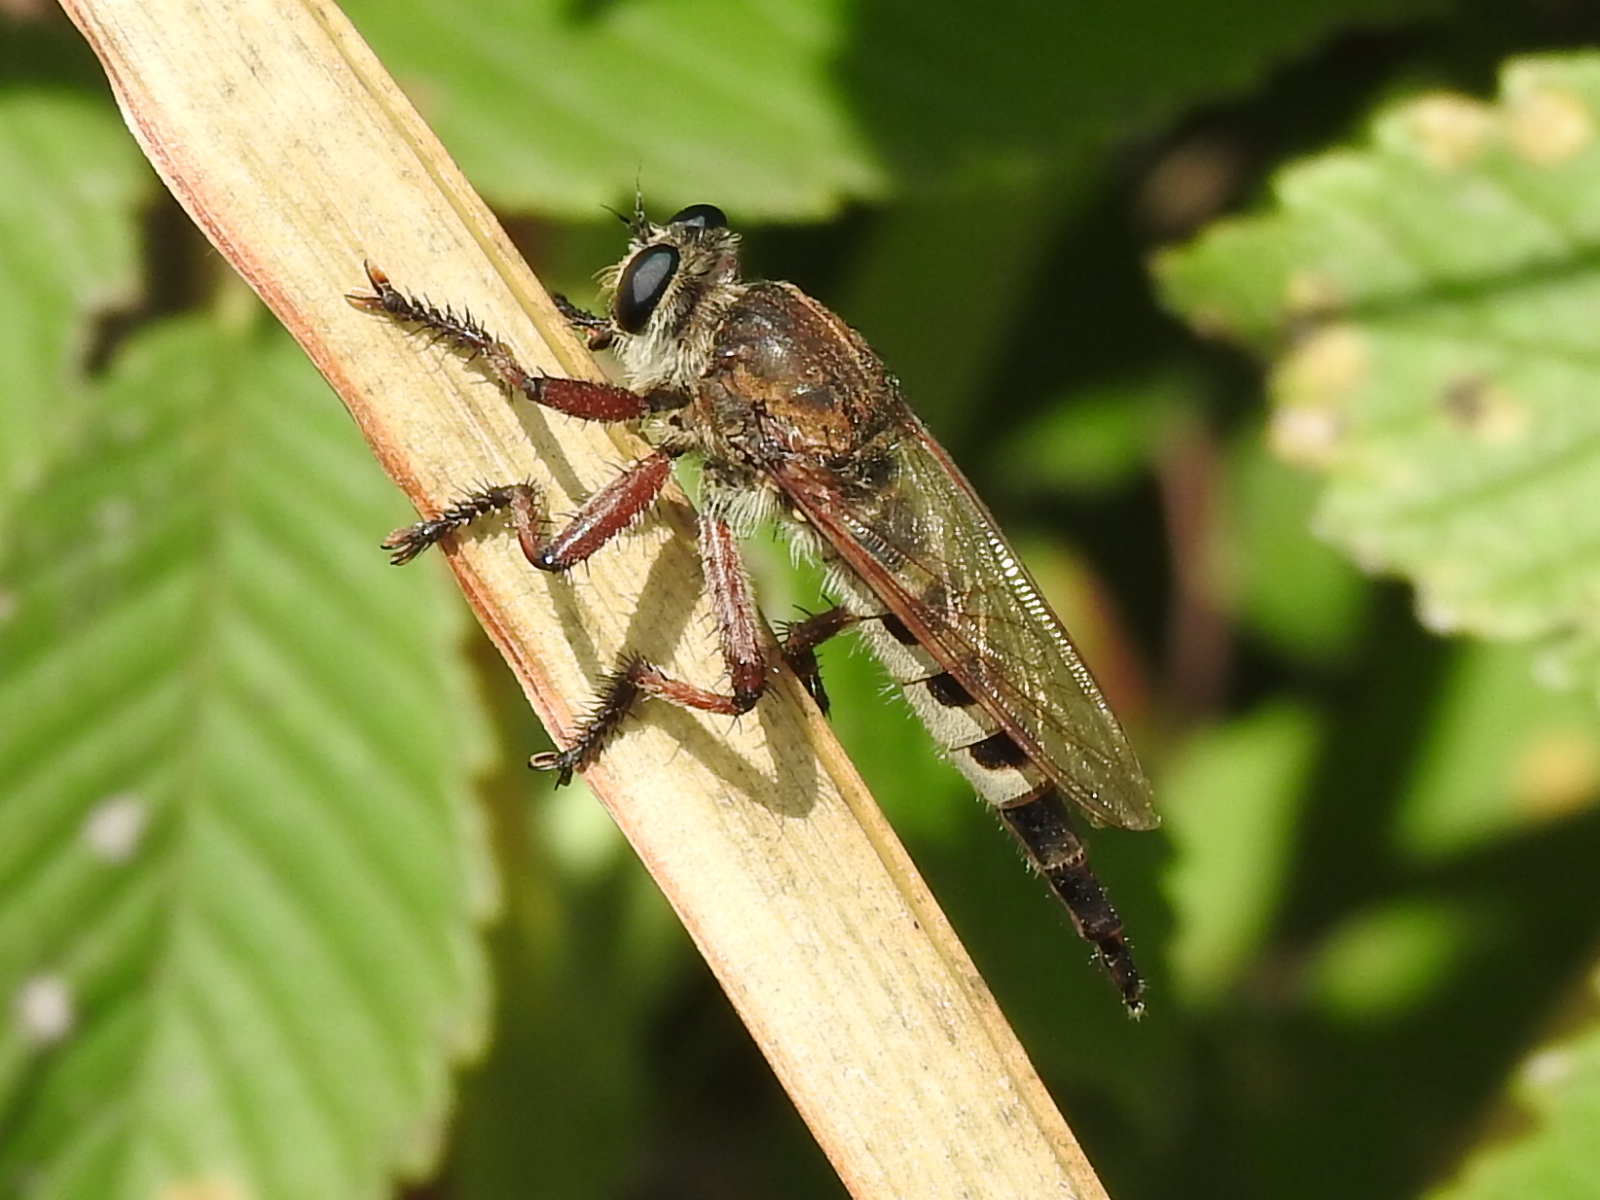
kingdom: Animalia
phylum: Arthropoda
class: Insecta
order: Diptera
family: Asilidae
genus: Promachus
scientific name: Promachus hinei
